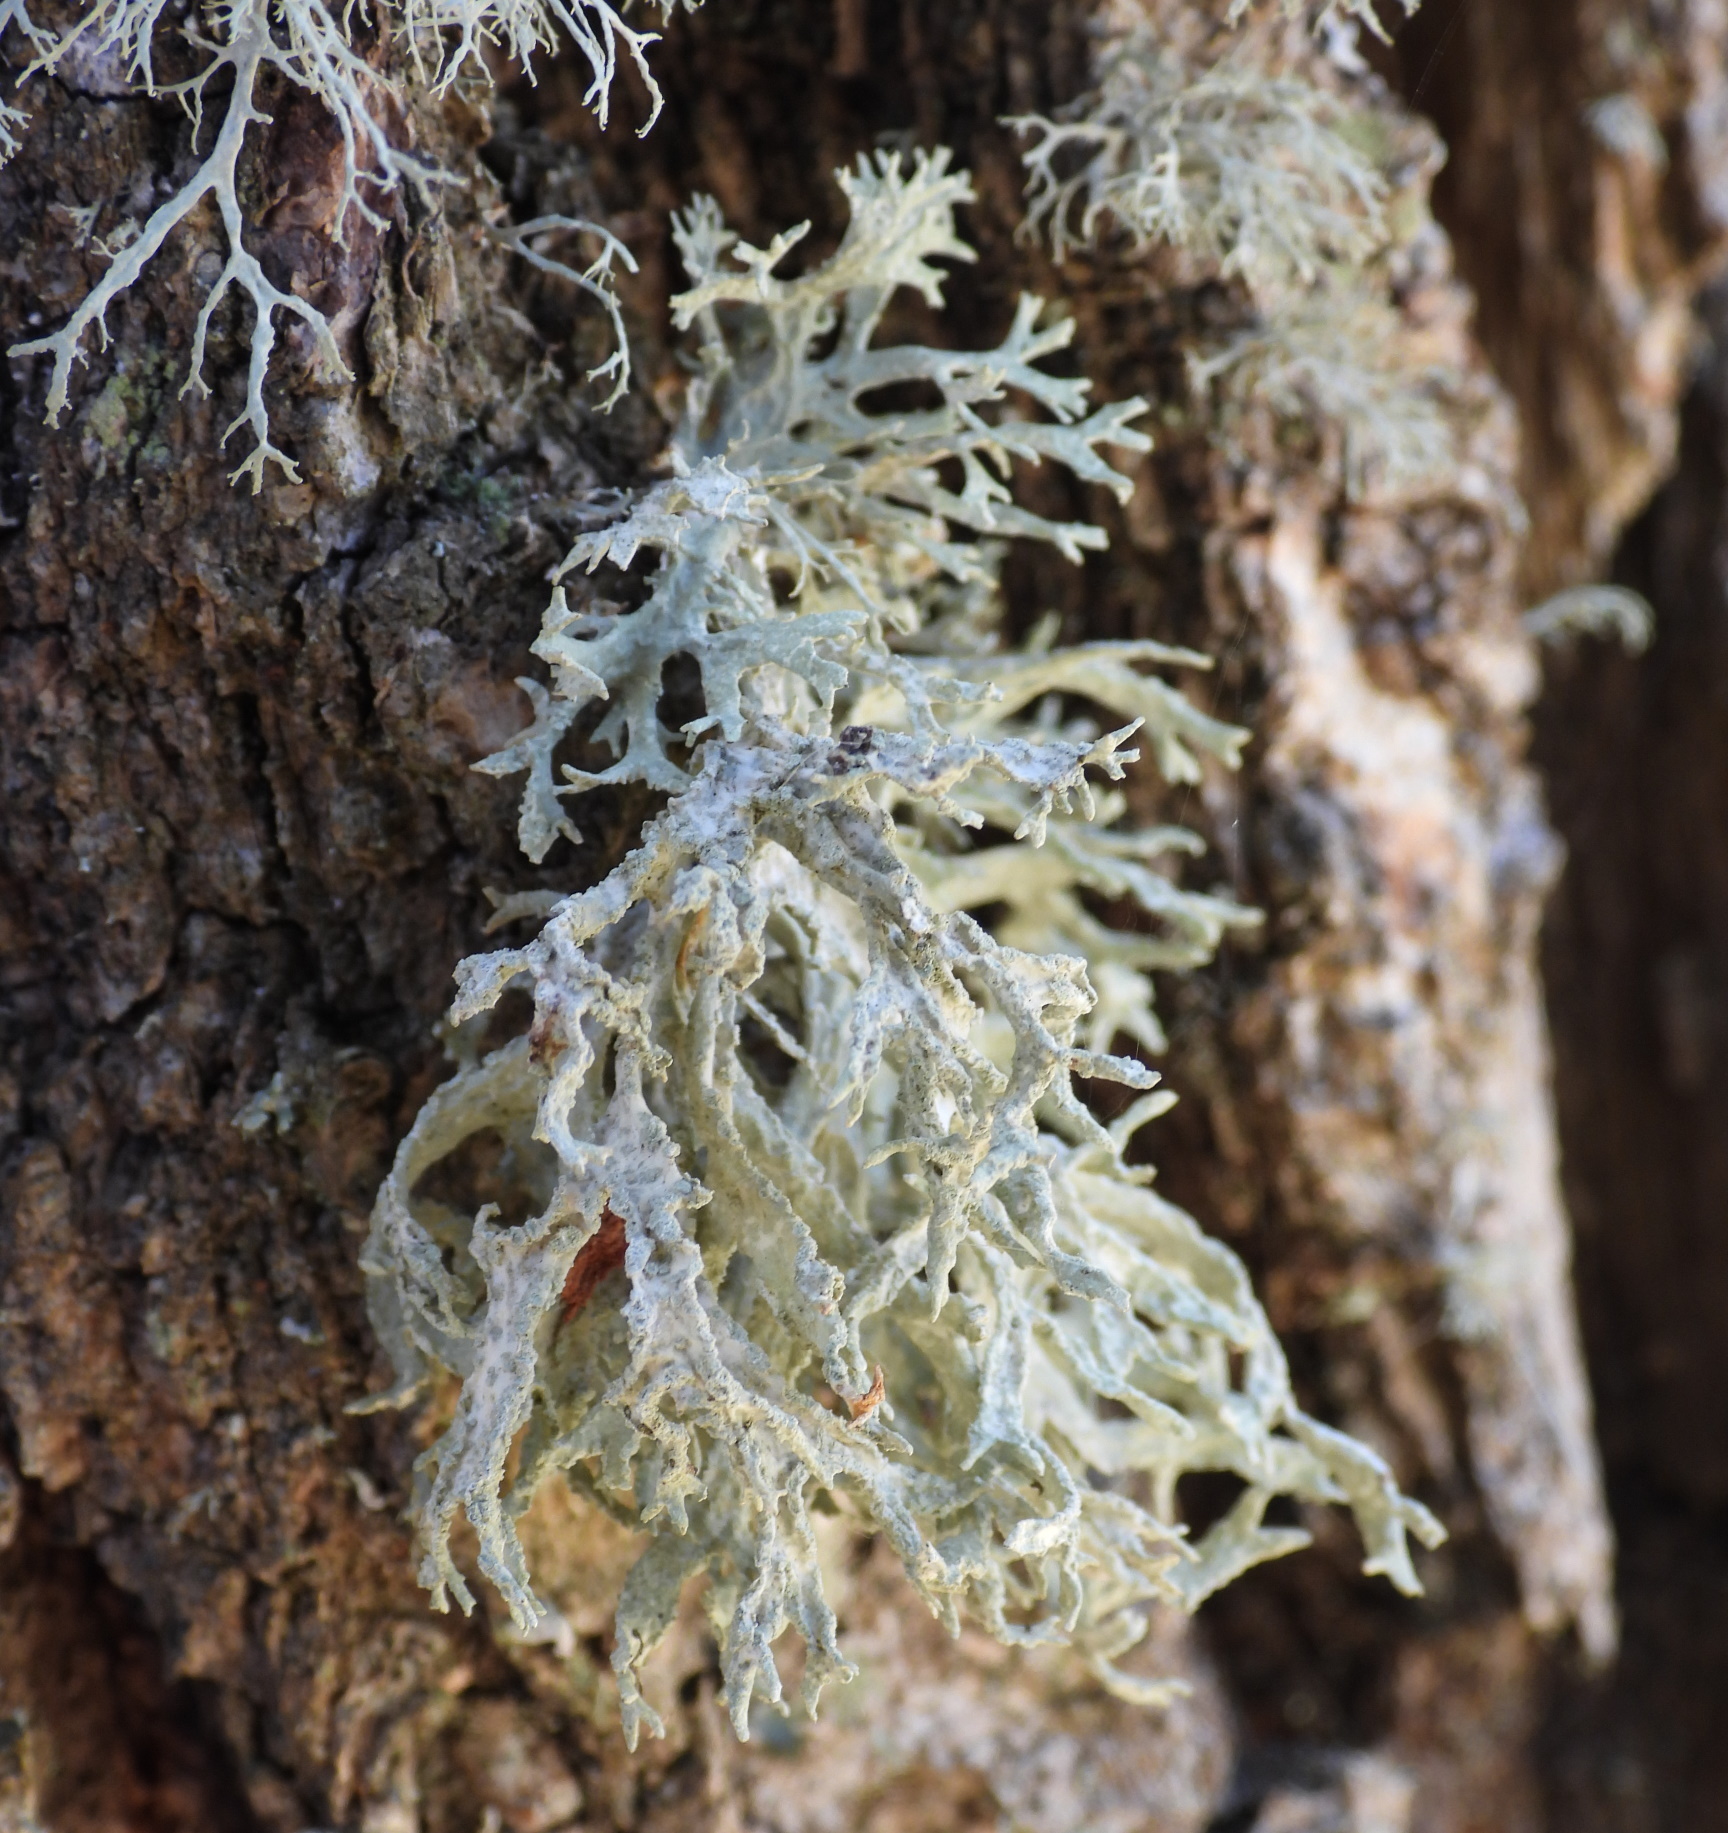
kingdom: Fungi
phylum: Ascomycota
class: Lecanoromycetes
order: Lecanorales
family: Parmeliaceae
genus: Evernia
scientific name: Evernia prunastri
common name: Oak moss
